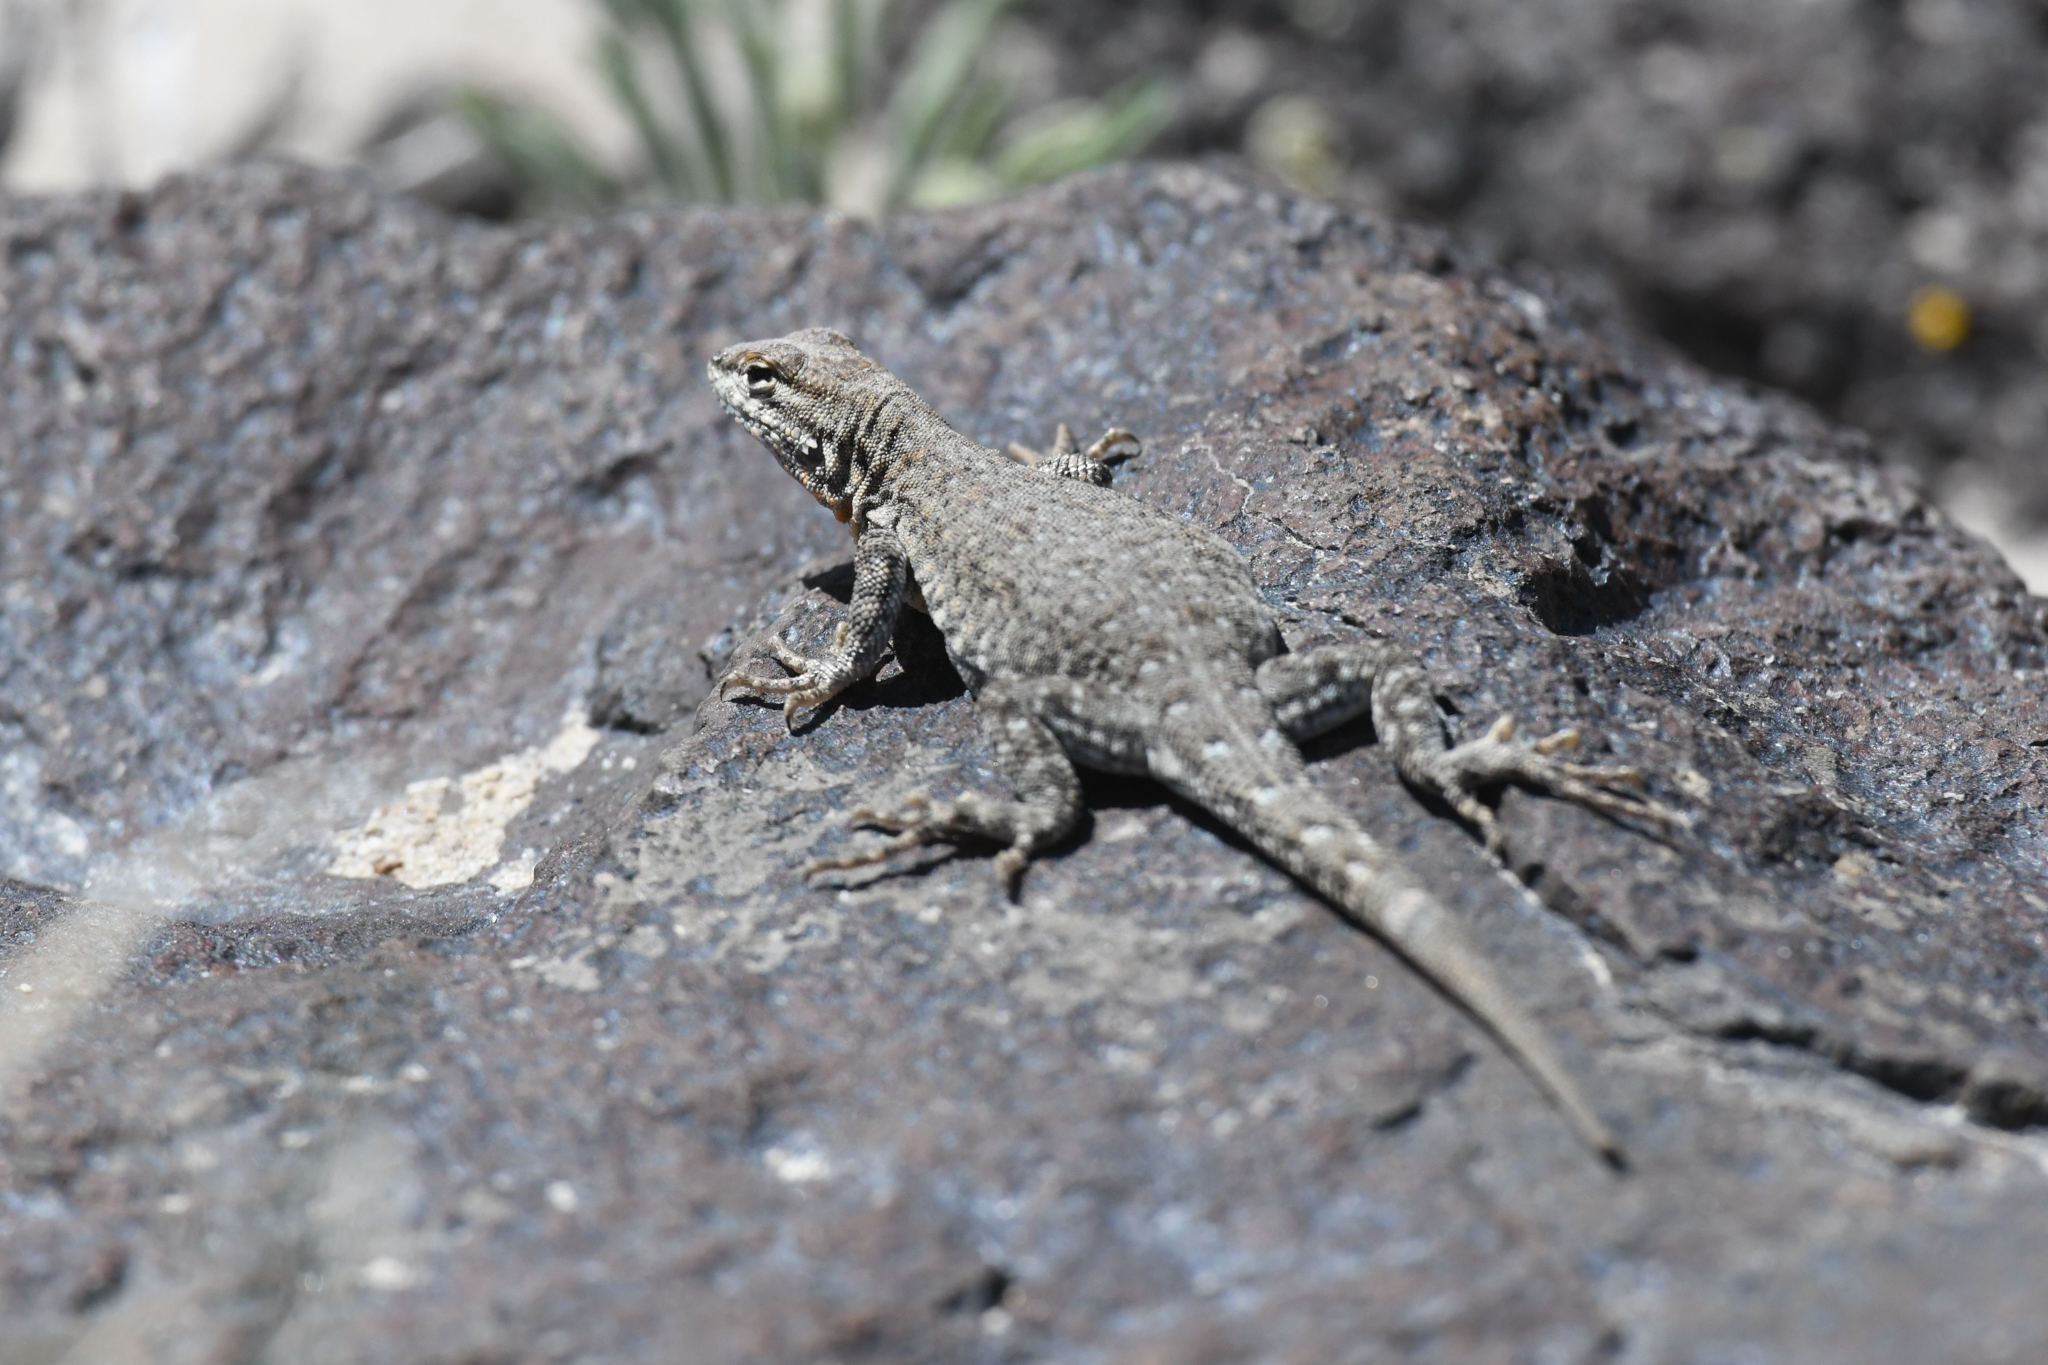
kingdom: Animalia
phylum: Chordata
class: Squamata
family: Phrynosomatidae
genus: Uta
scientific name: Uta stansburiana
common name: Side-blotched lizard
